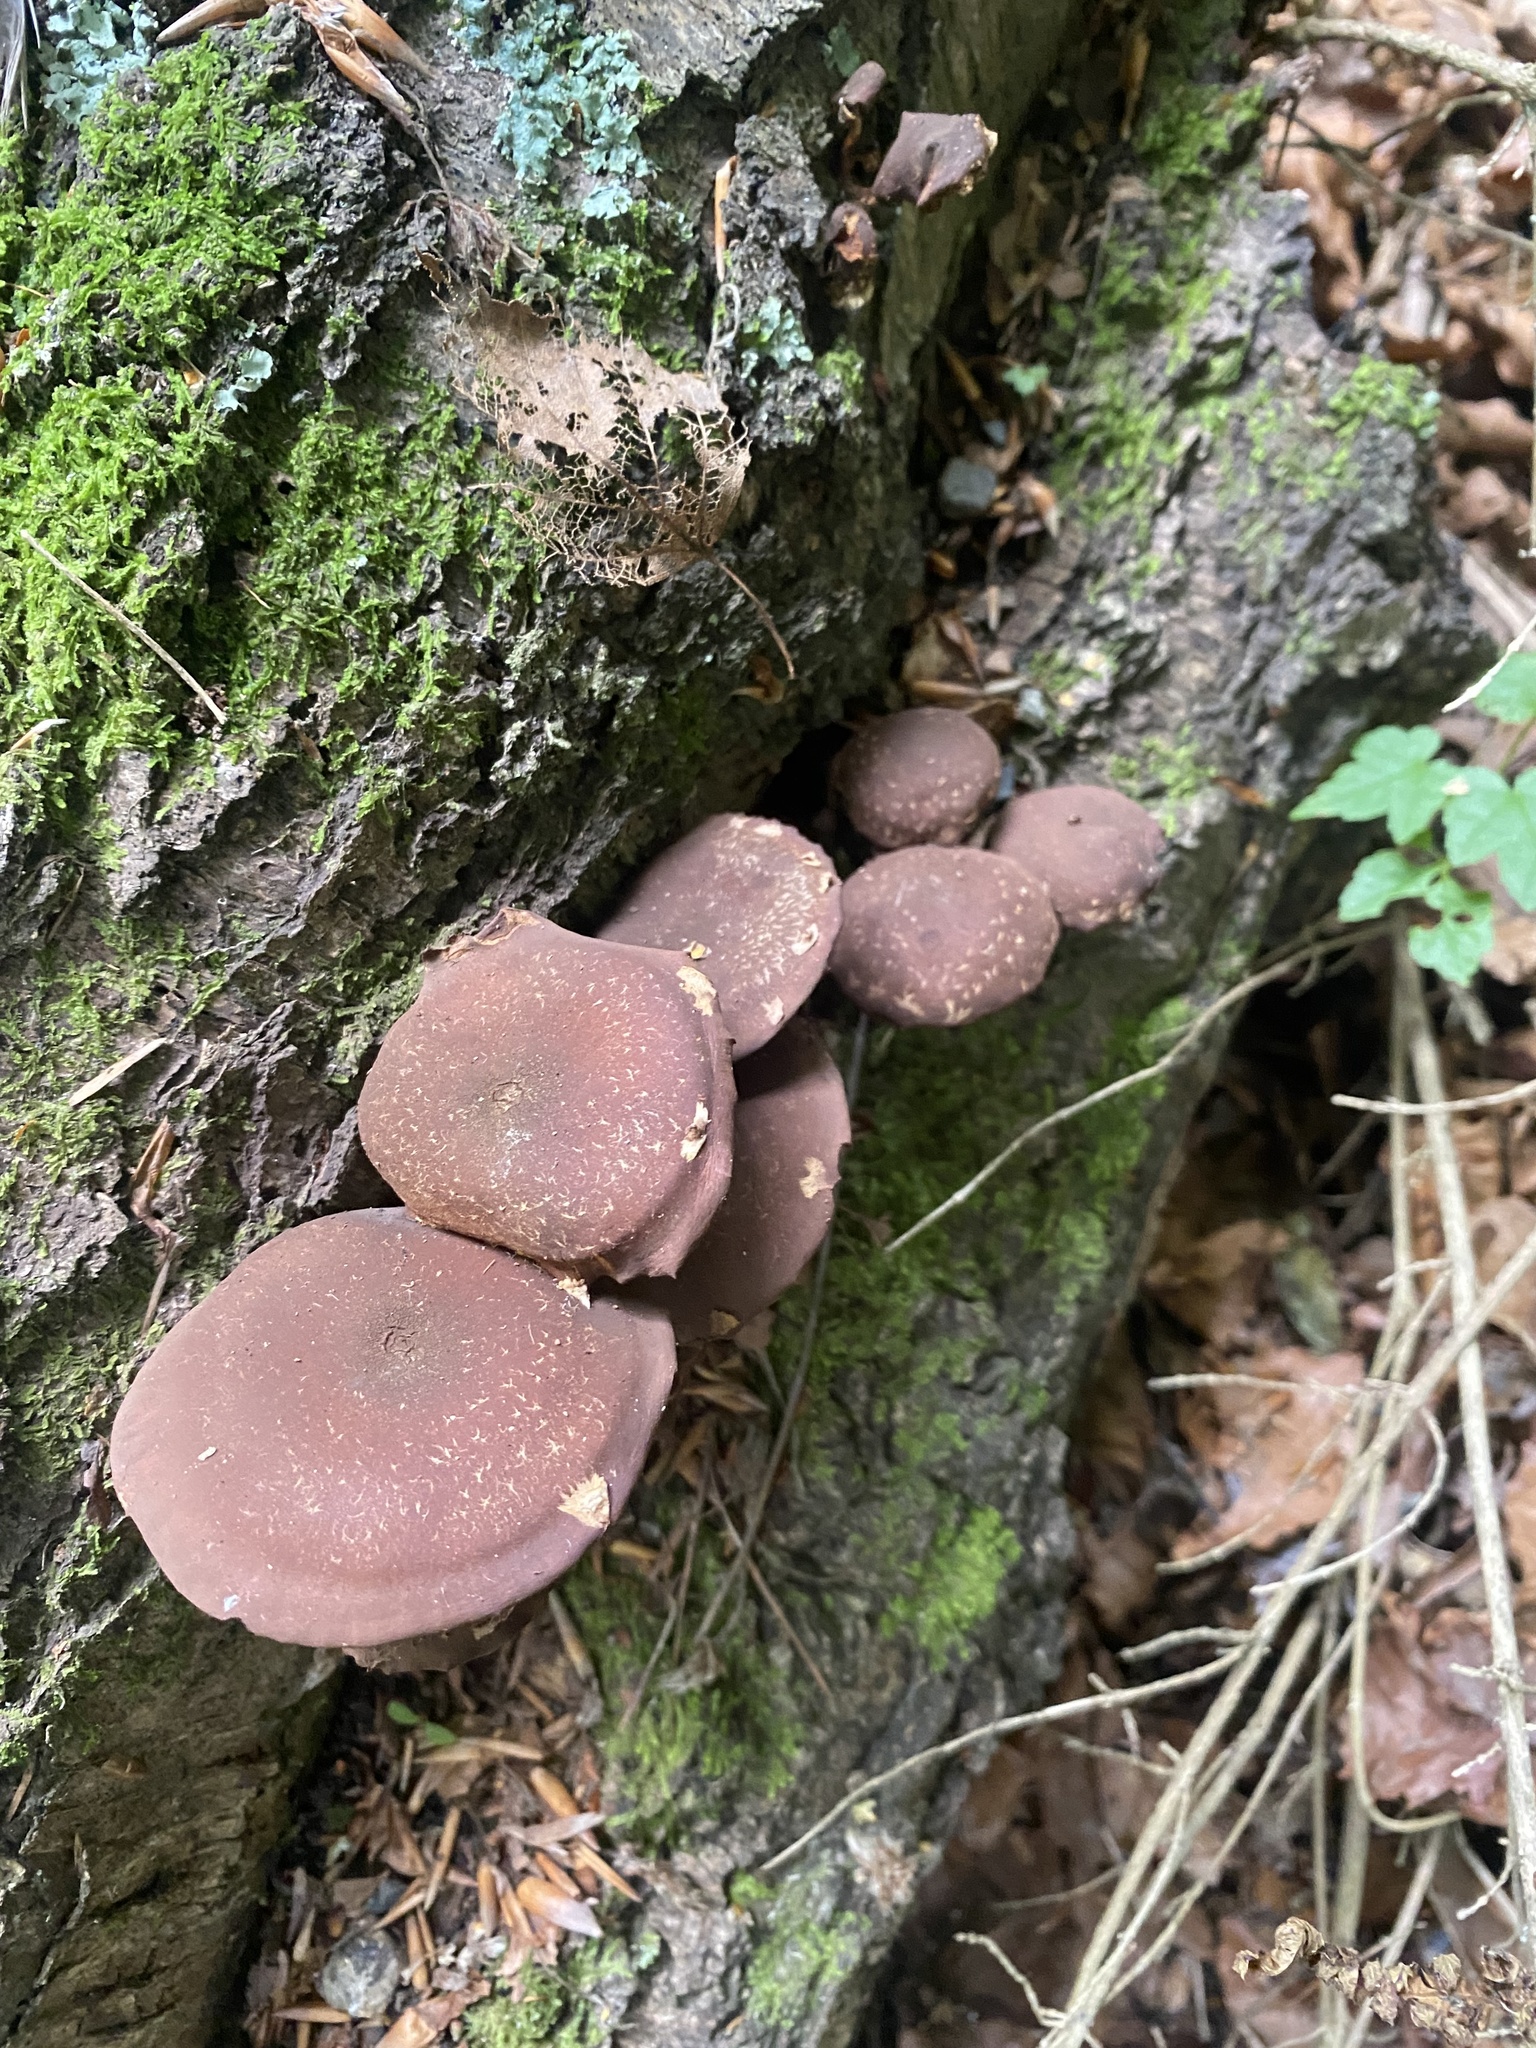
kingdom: Fungi
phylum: Basidiomycota
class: Agaricomycetes
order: Agaricales
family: Strophariaceae
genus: Hypholoma
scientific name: Hypholoma brunneum
